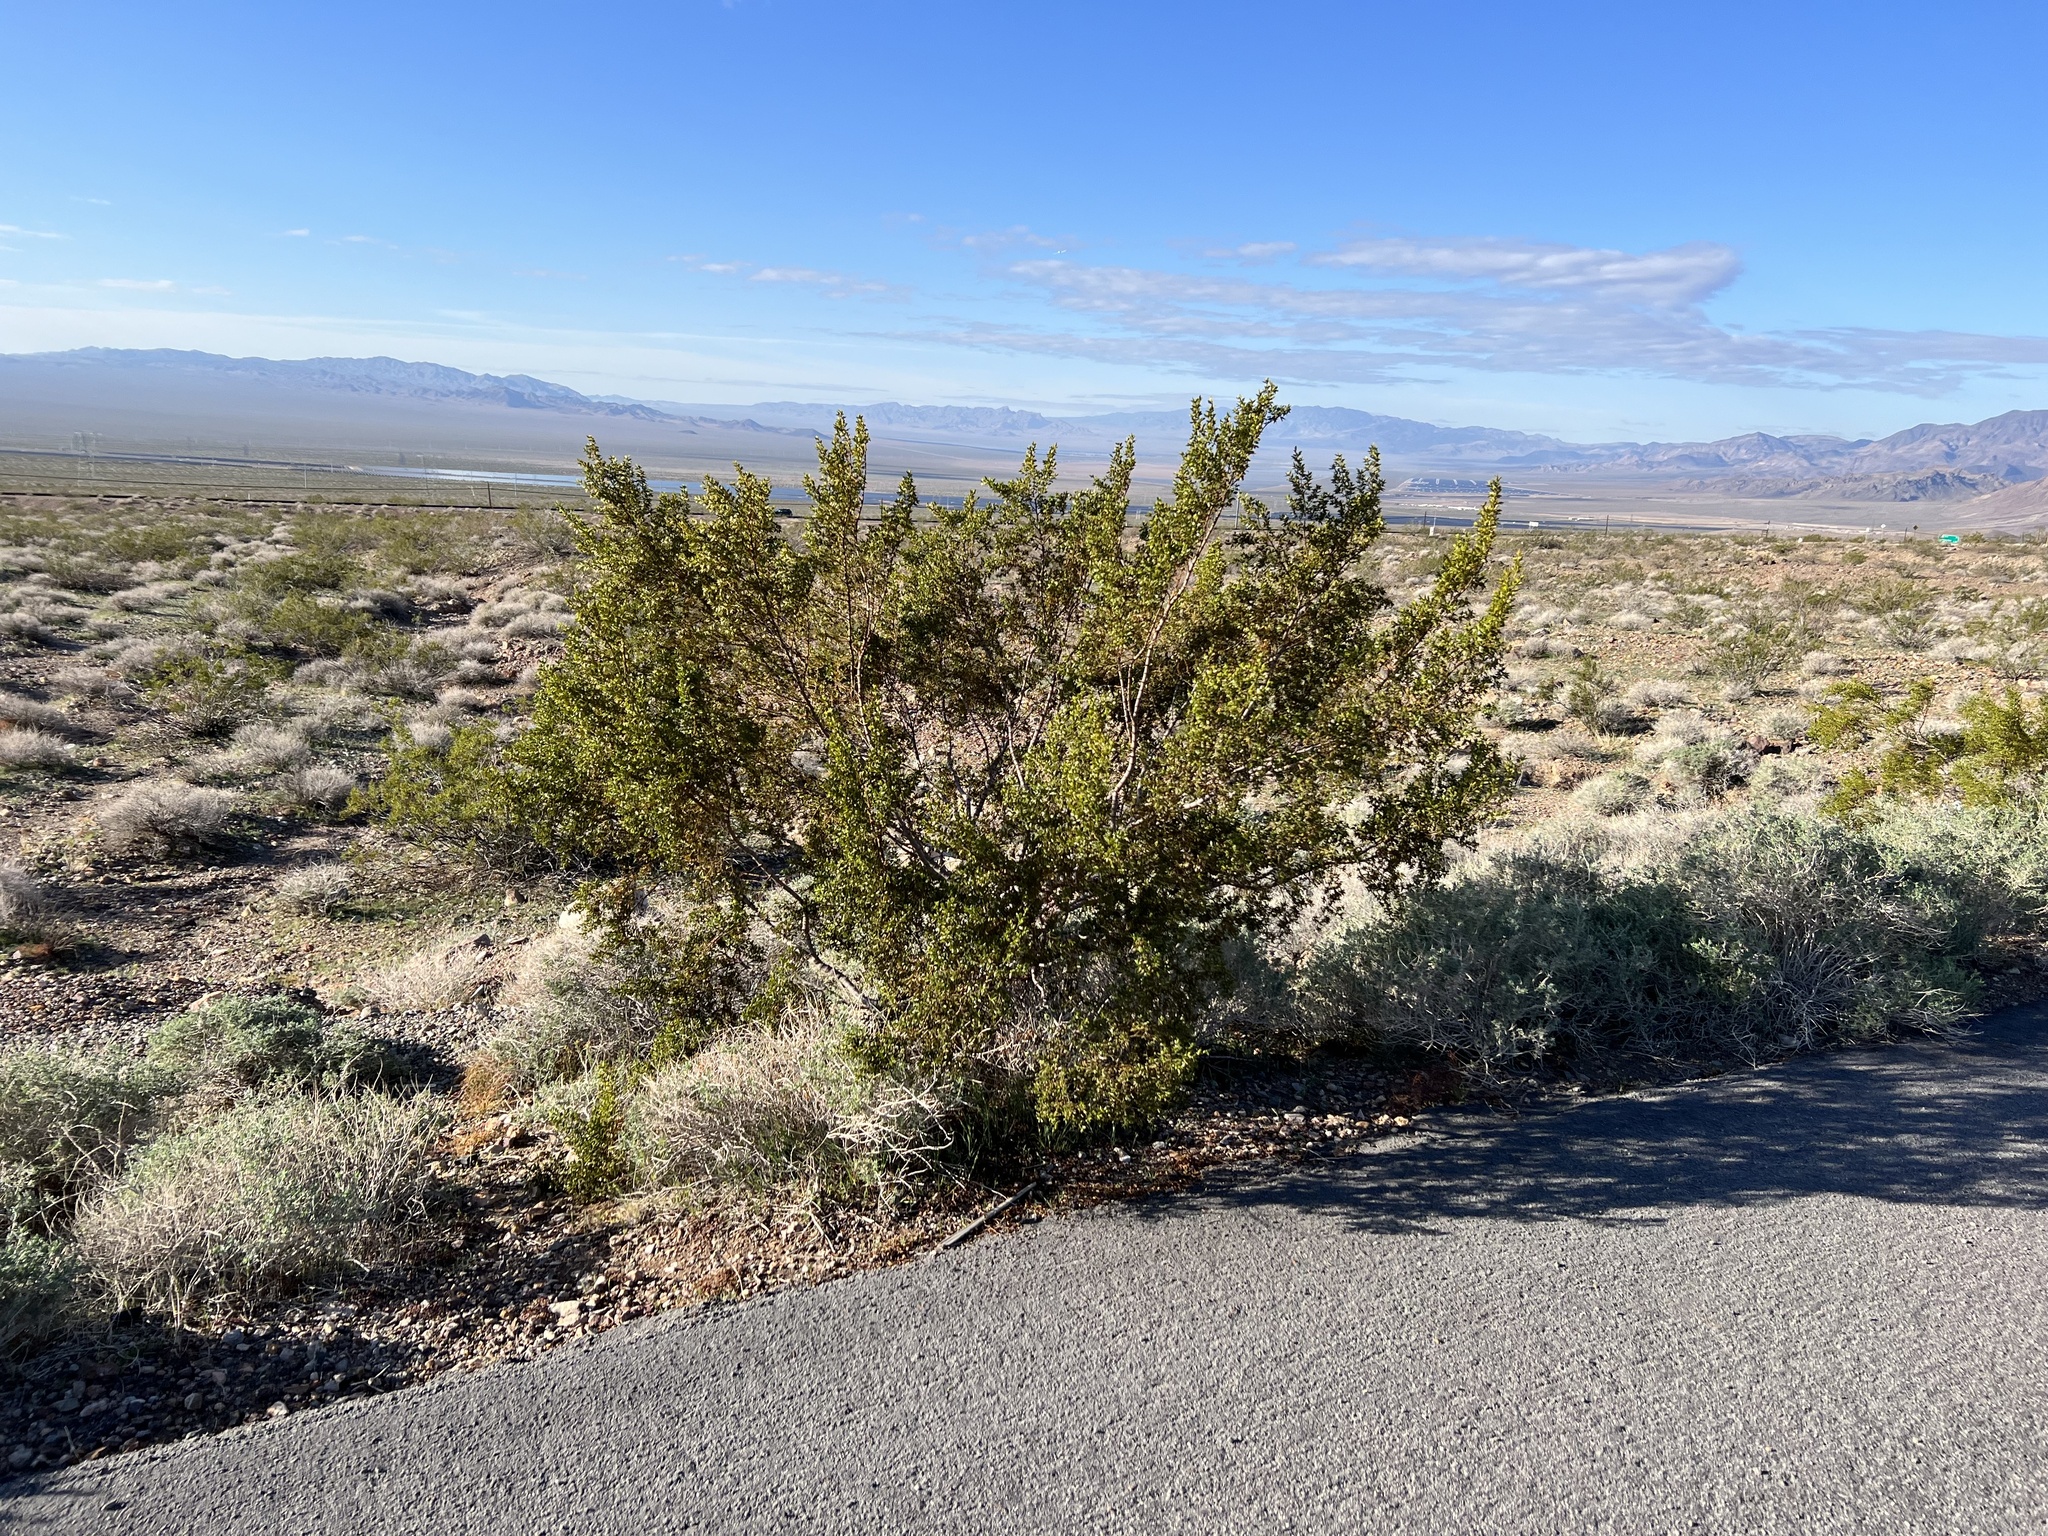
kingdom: Plantae
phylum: Tracheophyta
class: Magnoliopsida
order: Zygophyllales
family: Zygophyllaceae
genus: Larrea
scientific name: Larrea tridentata
